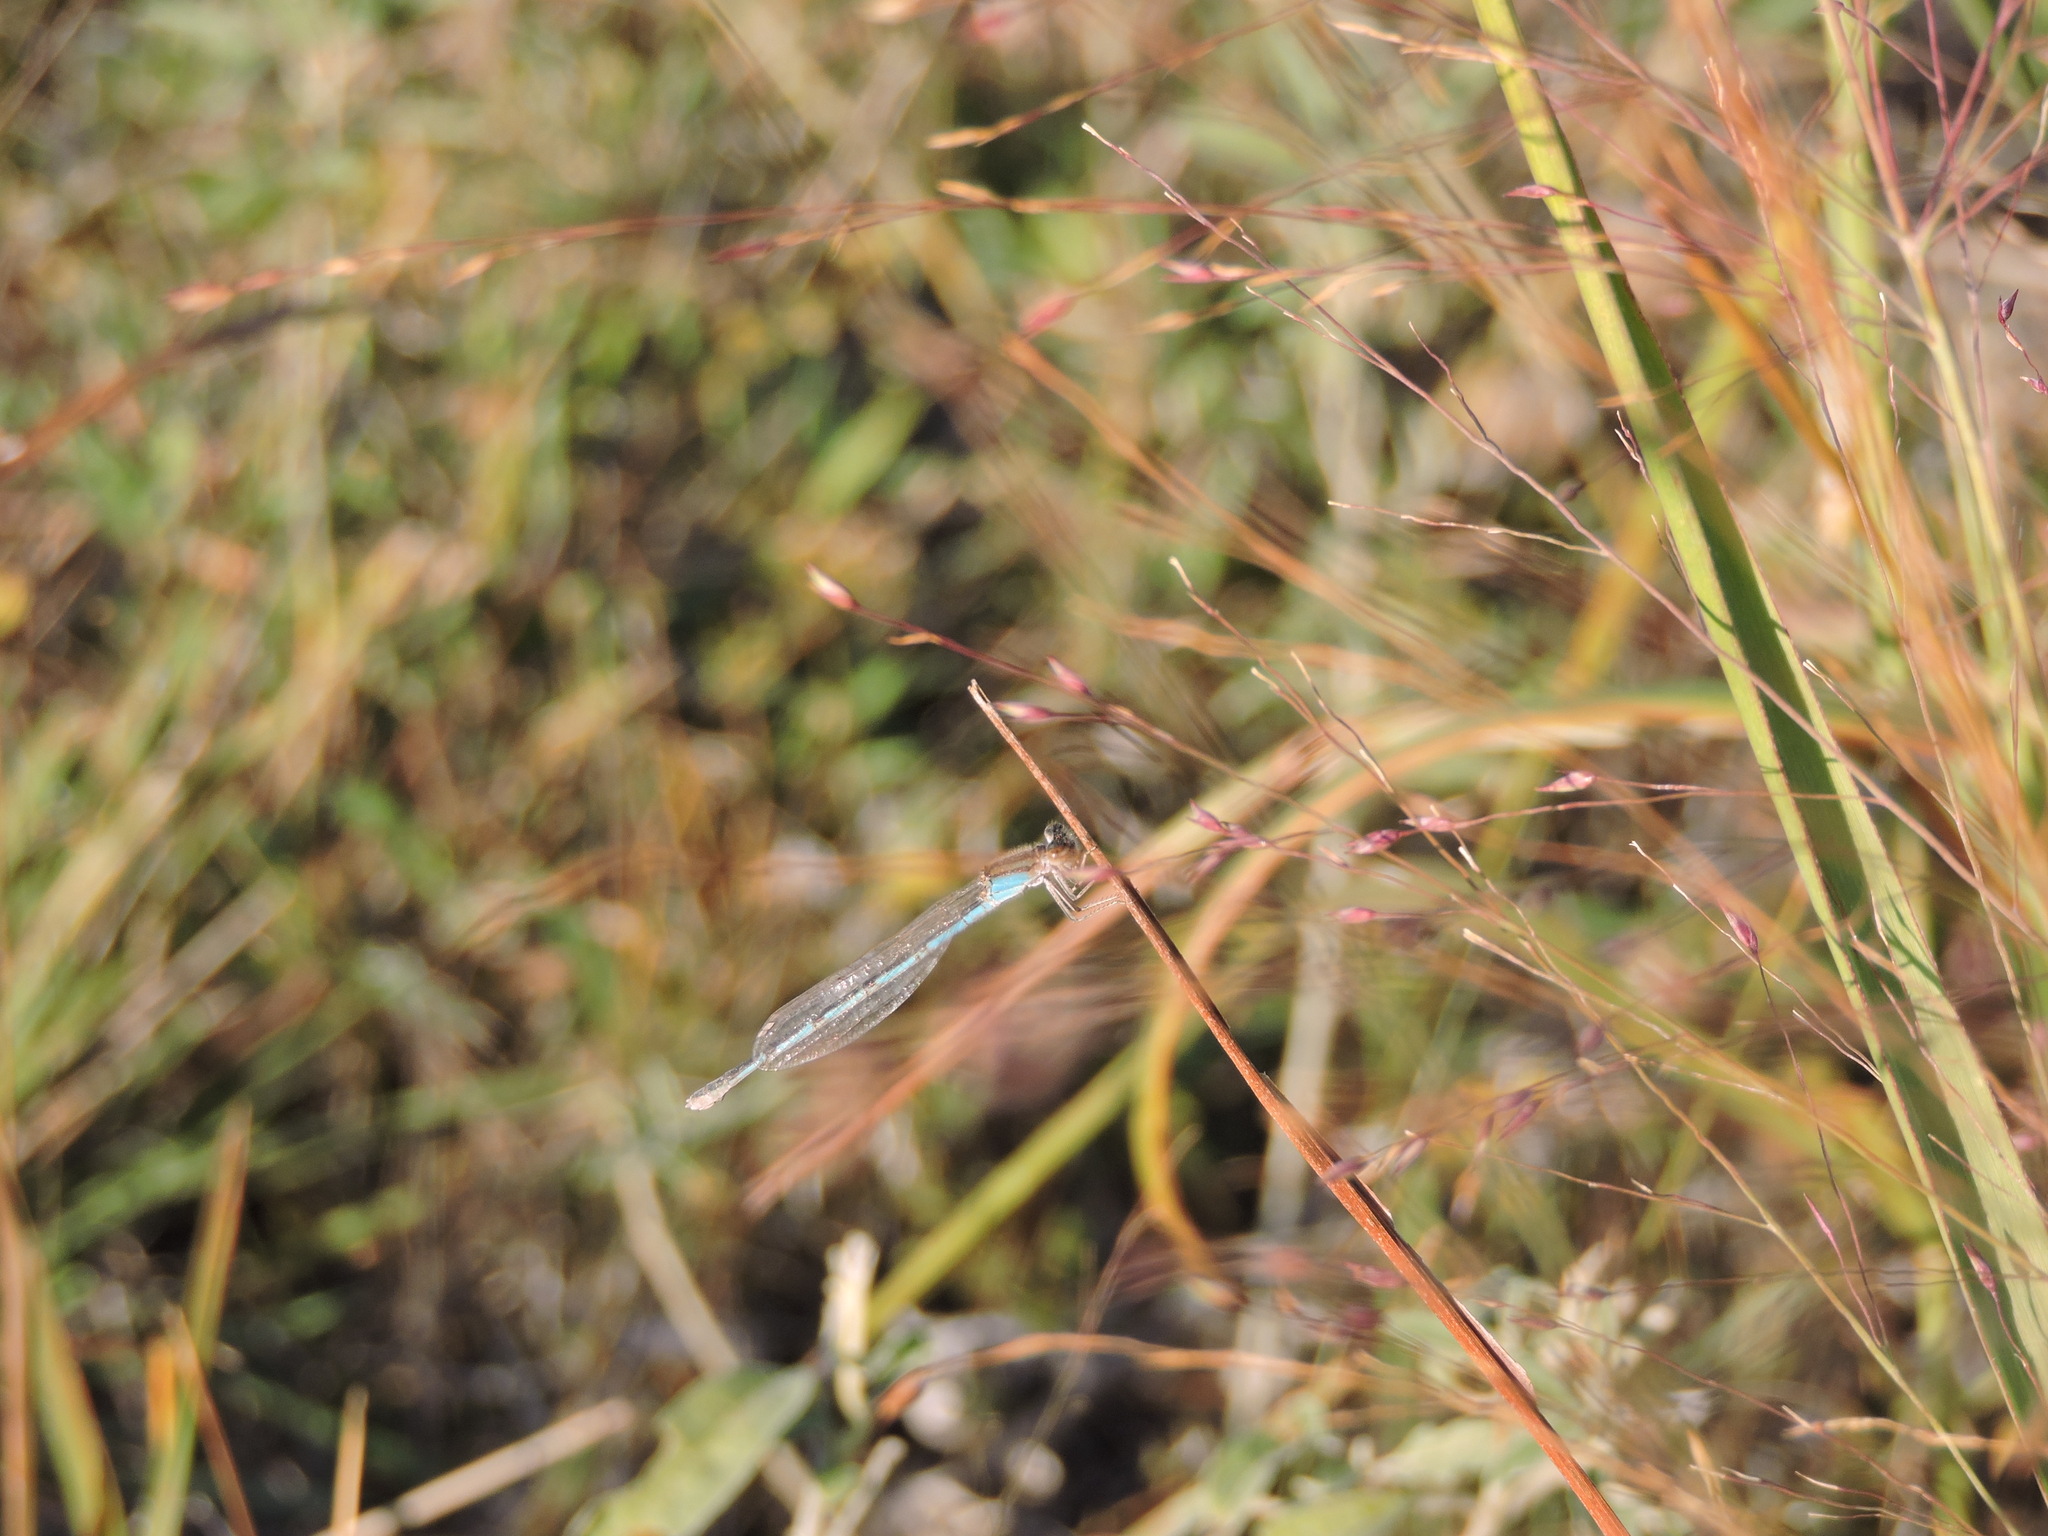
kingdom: Animalia
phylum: Arthropoda
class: Insecta
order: Odonata
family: Coenagrionidae
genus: Enallagma
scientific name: Enallagma civile
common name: Damselfly
